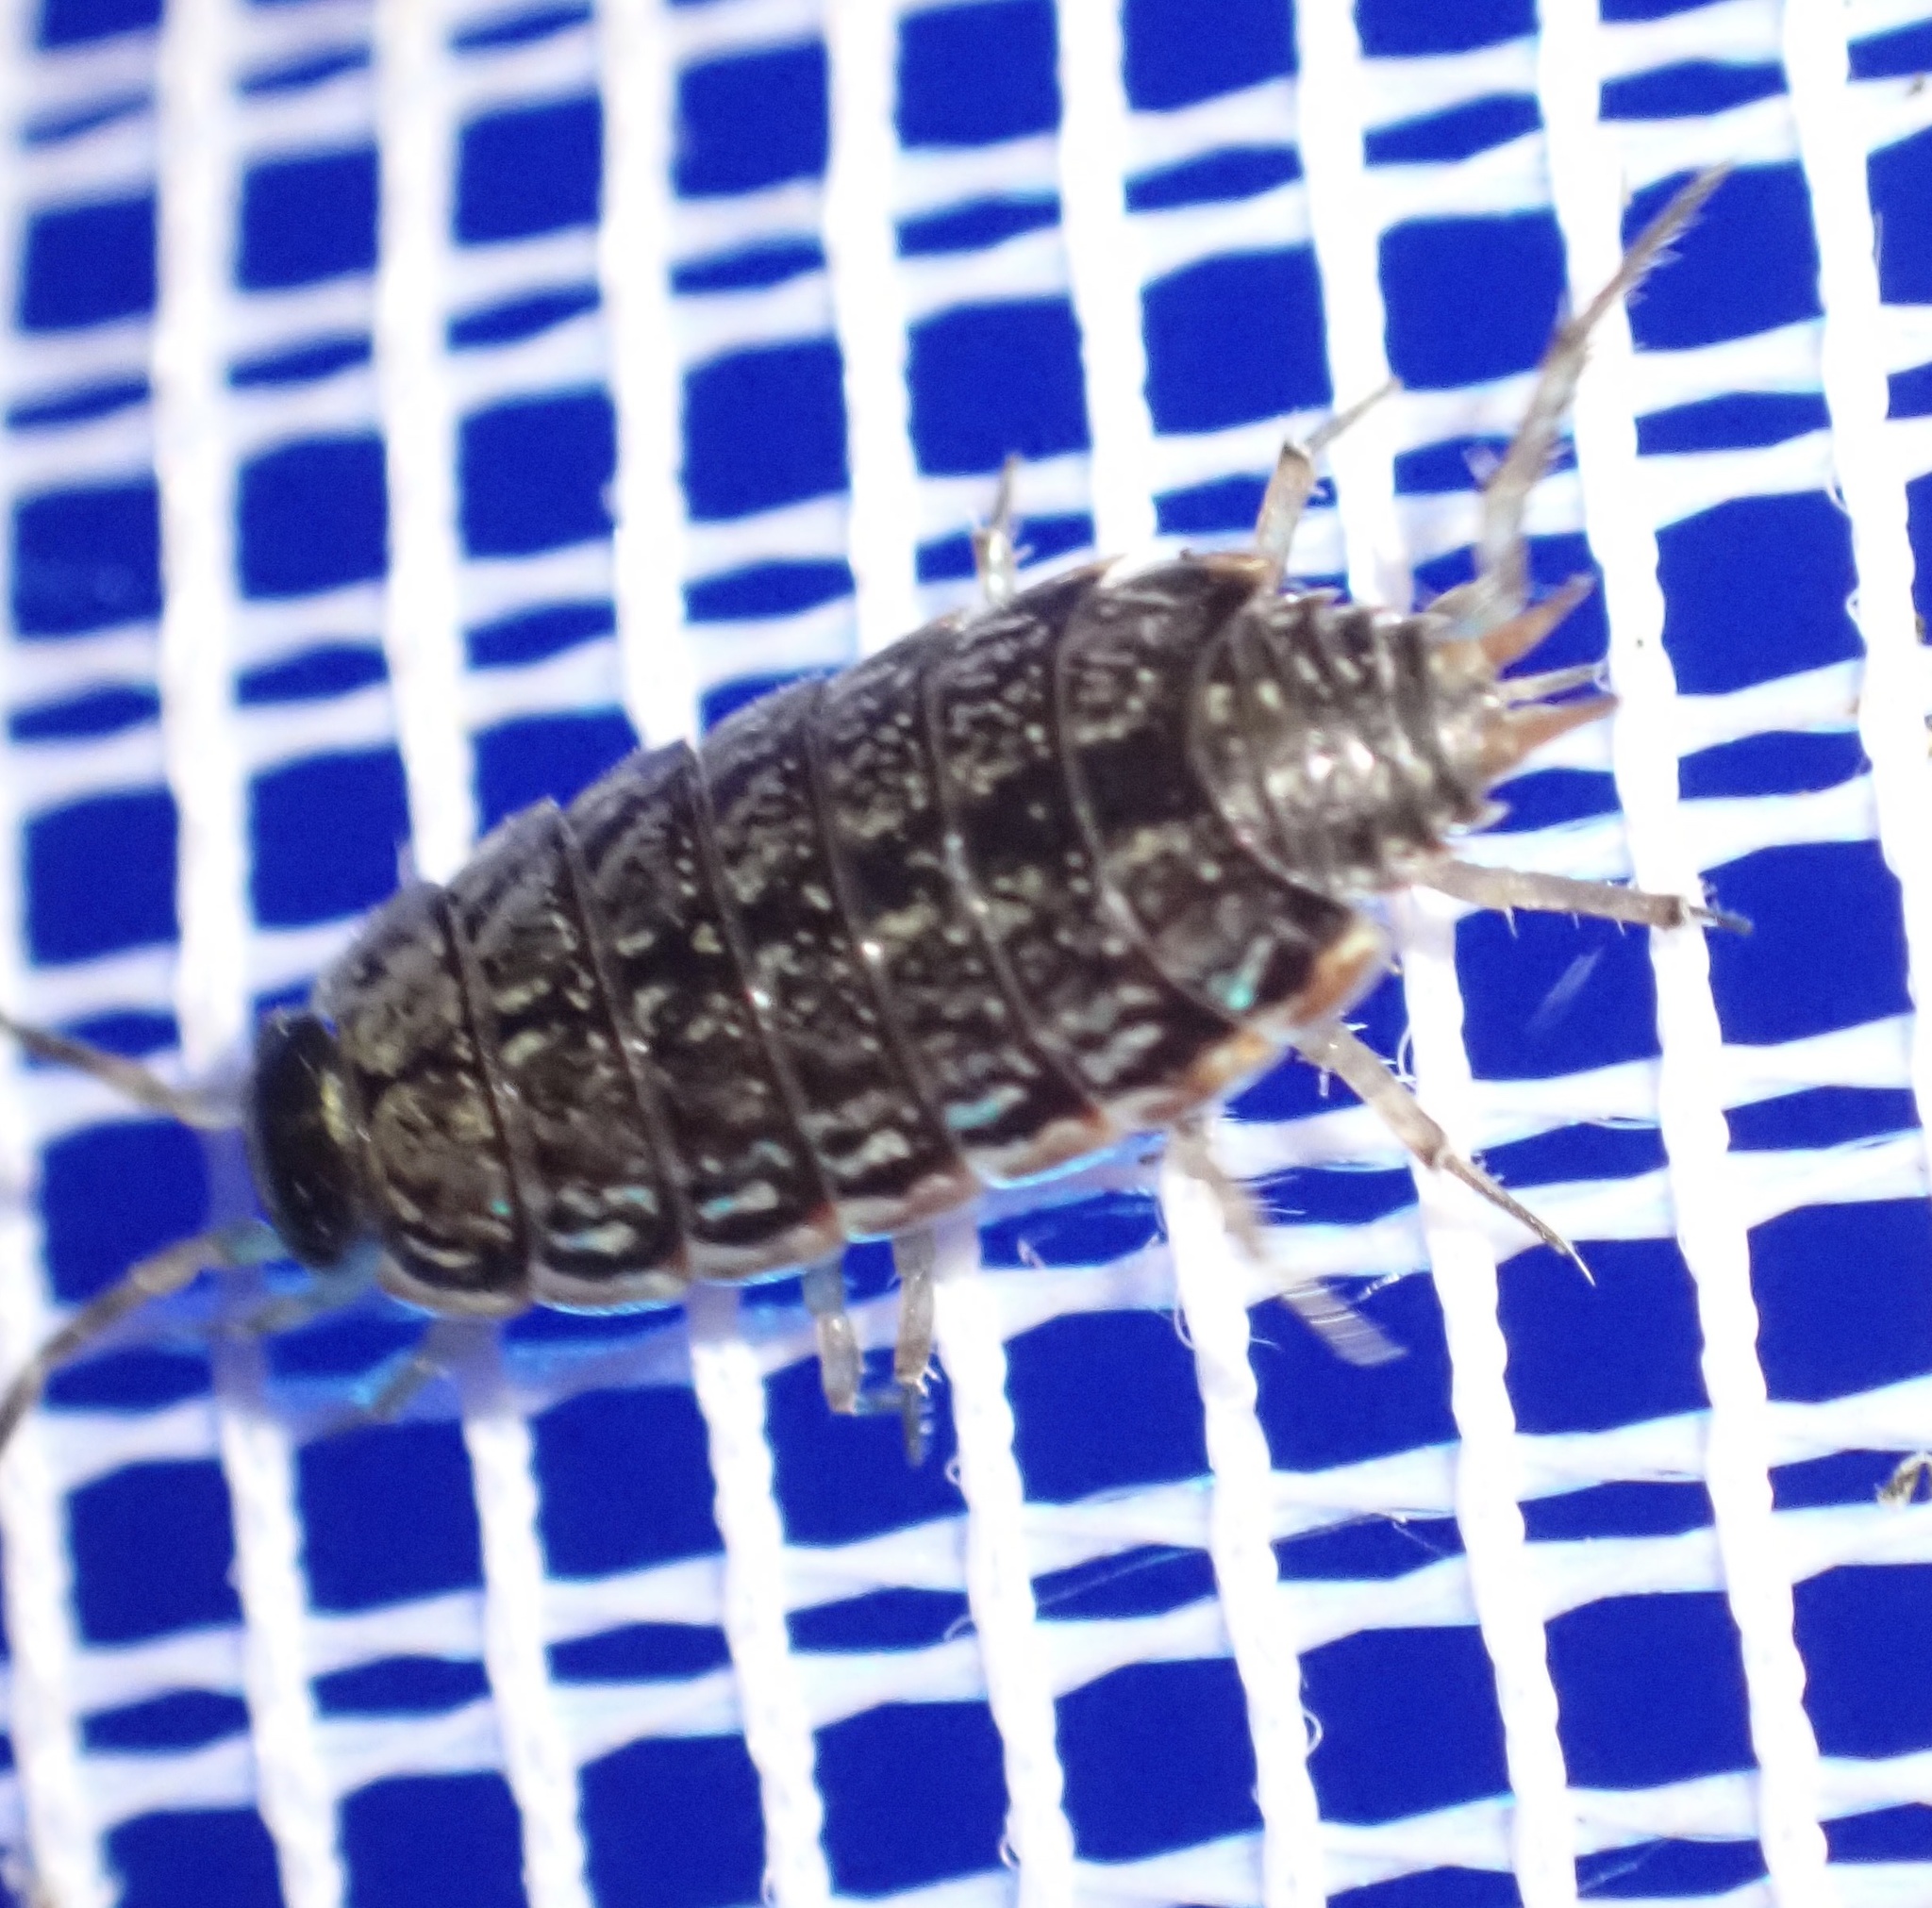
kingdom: Animalia
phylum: Arthropoda
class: Malacostraca
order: Isopoda
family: Philosciidae
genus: Philoscia
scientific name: Philoscia muscorum
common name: Common striped woodlouse
